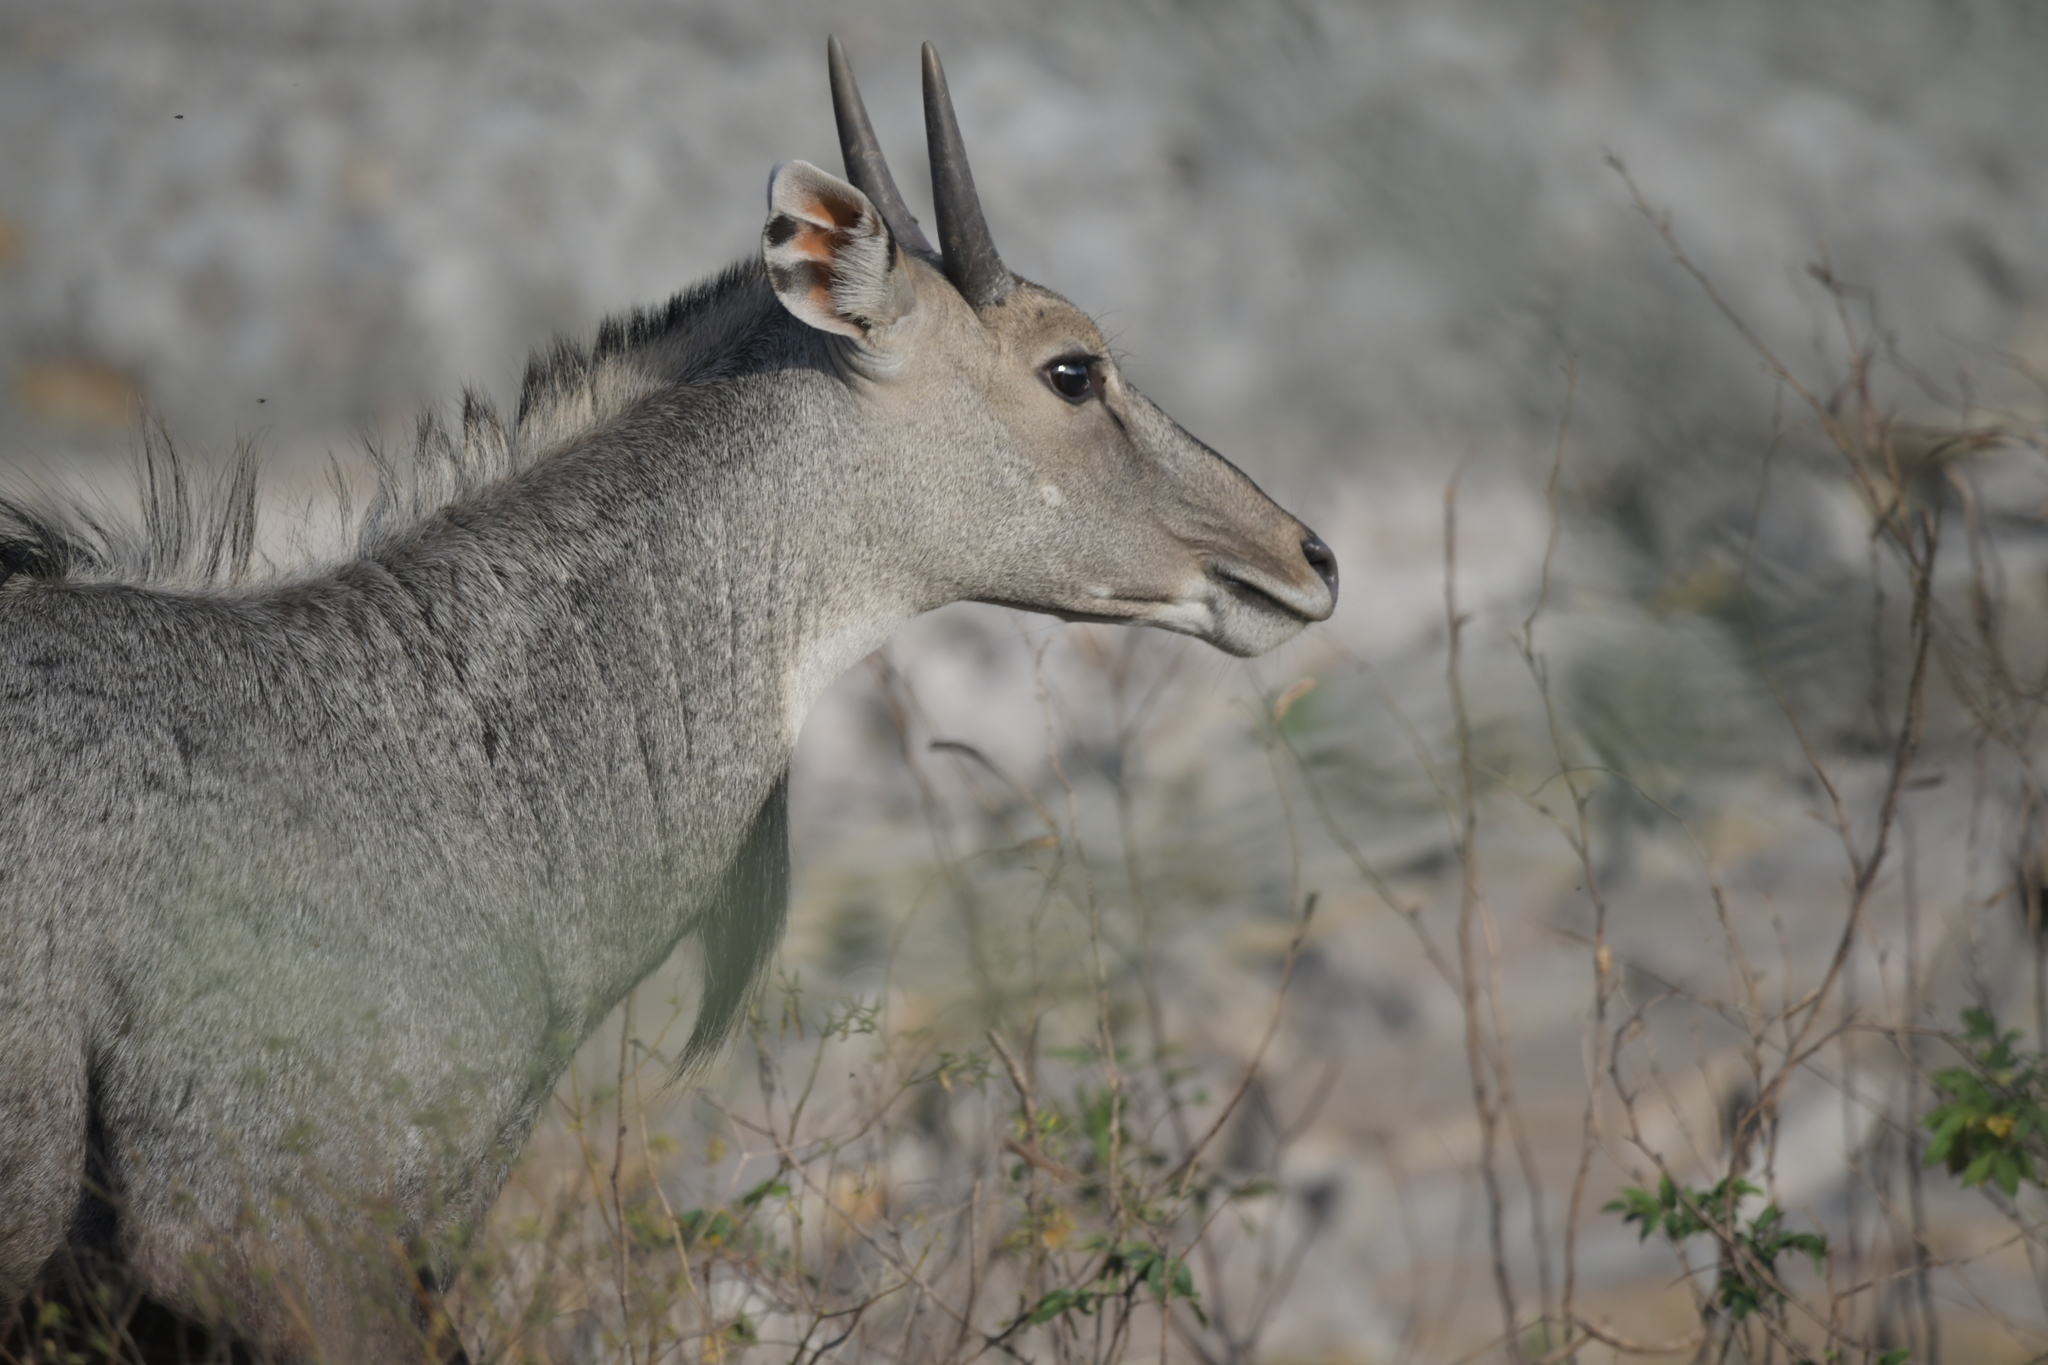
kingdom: Animalia
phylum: Chordata
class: Mammalia
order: Artiodactyla
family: Bovidae
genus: Boselaphus
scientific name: Boselaphus tragocamelus
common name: Nilgai
